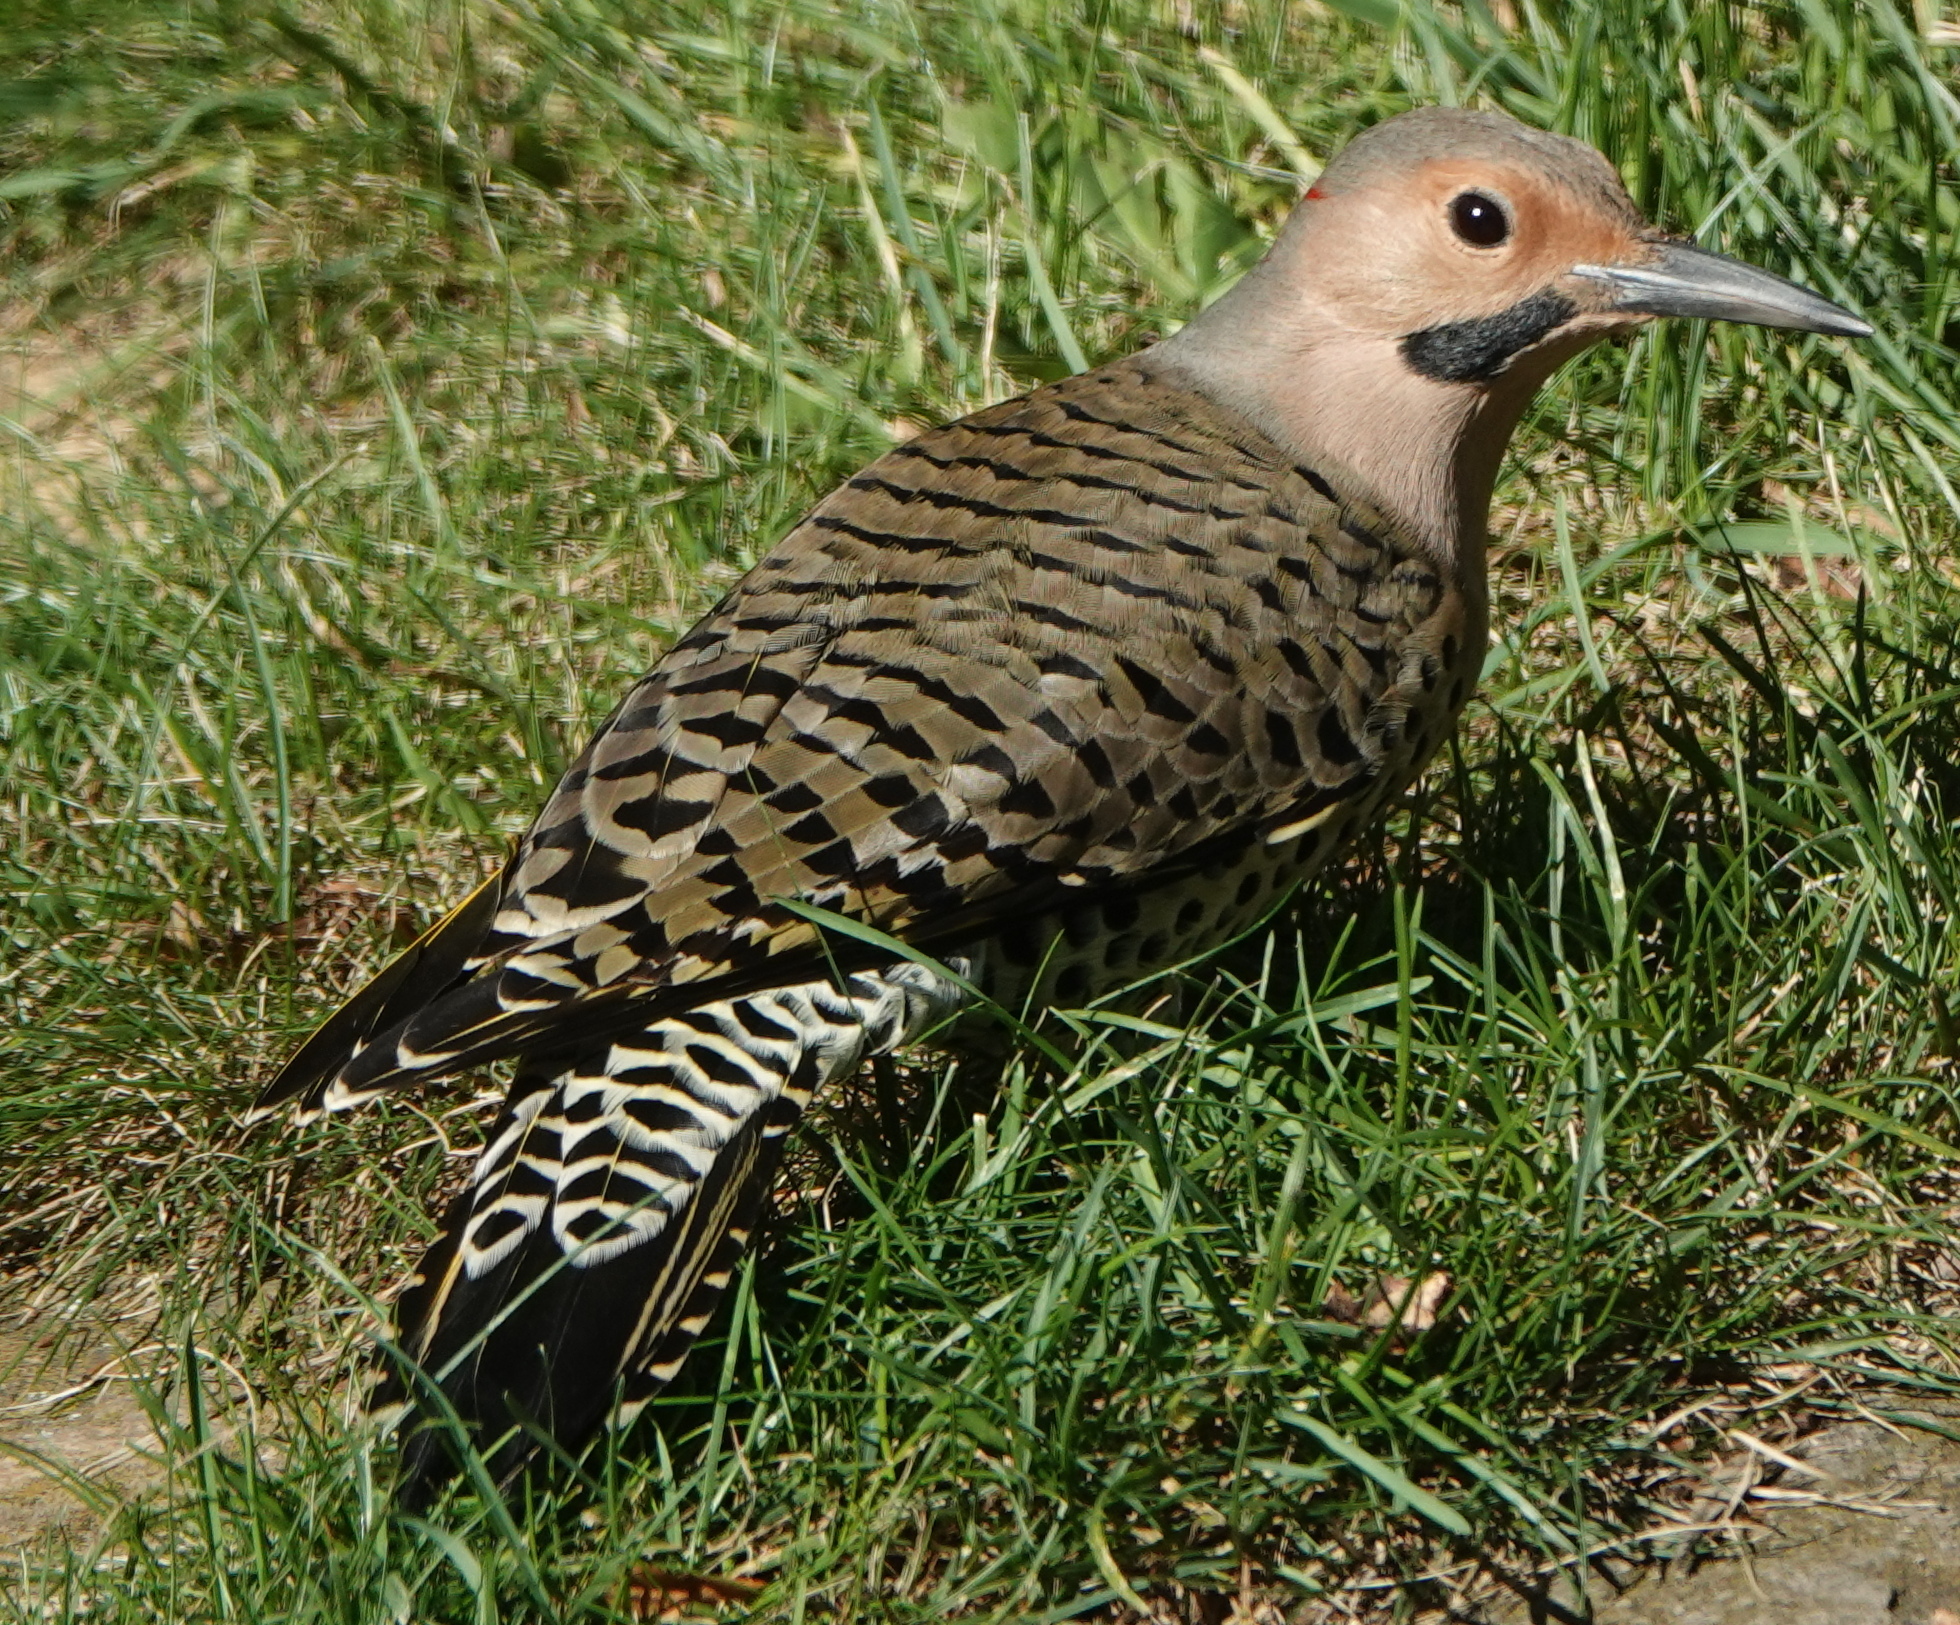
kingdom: Animalia
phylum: Chordata
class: Aves
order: Piciformes
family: Picidae
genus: Colaptes
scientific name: Colaptes auratus
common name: Northern flicker
